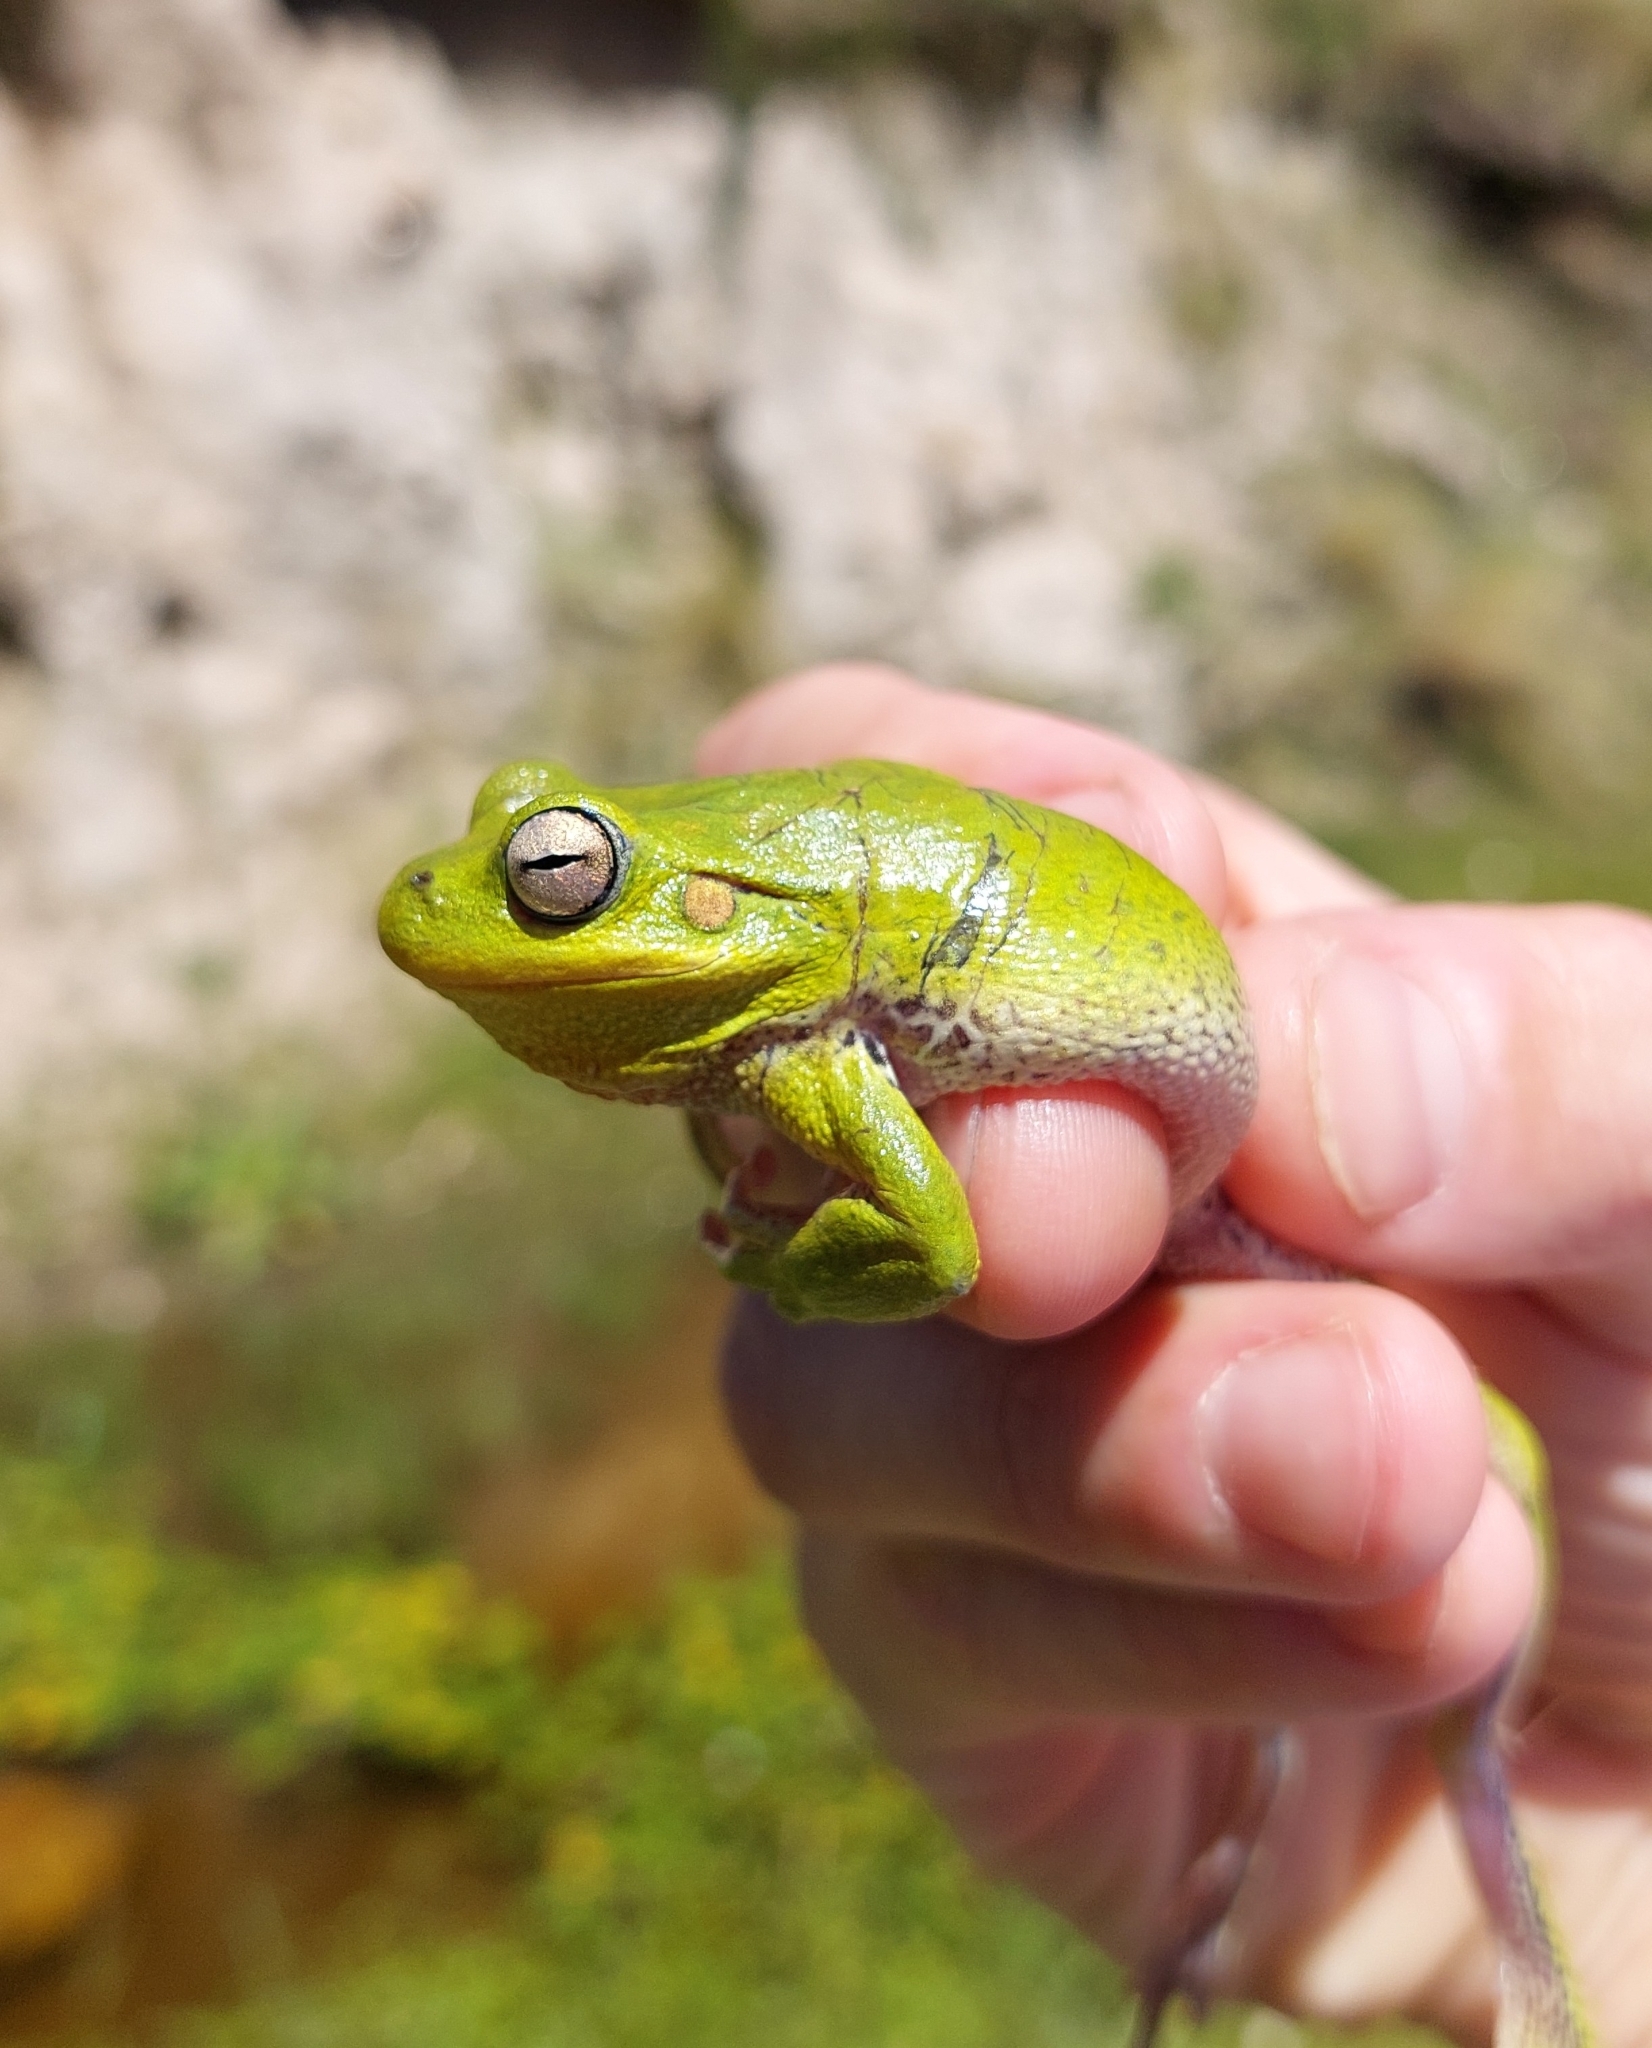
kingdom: Animalia
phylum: Chordata
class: Amphibia
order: Anura
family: Hylidae
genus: Boana
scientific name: Boana cordobae
